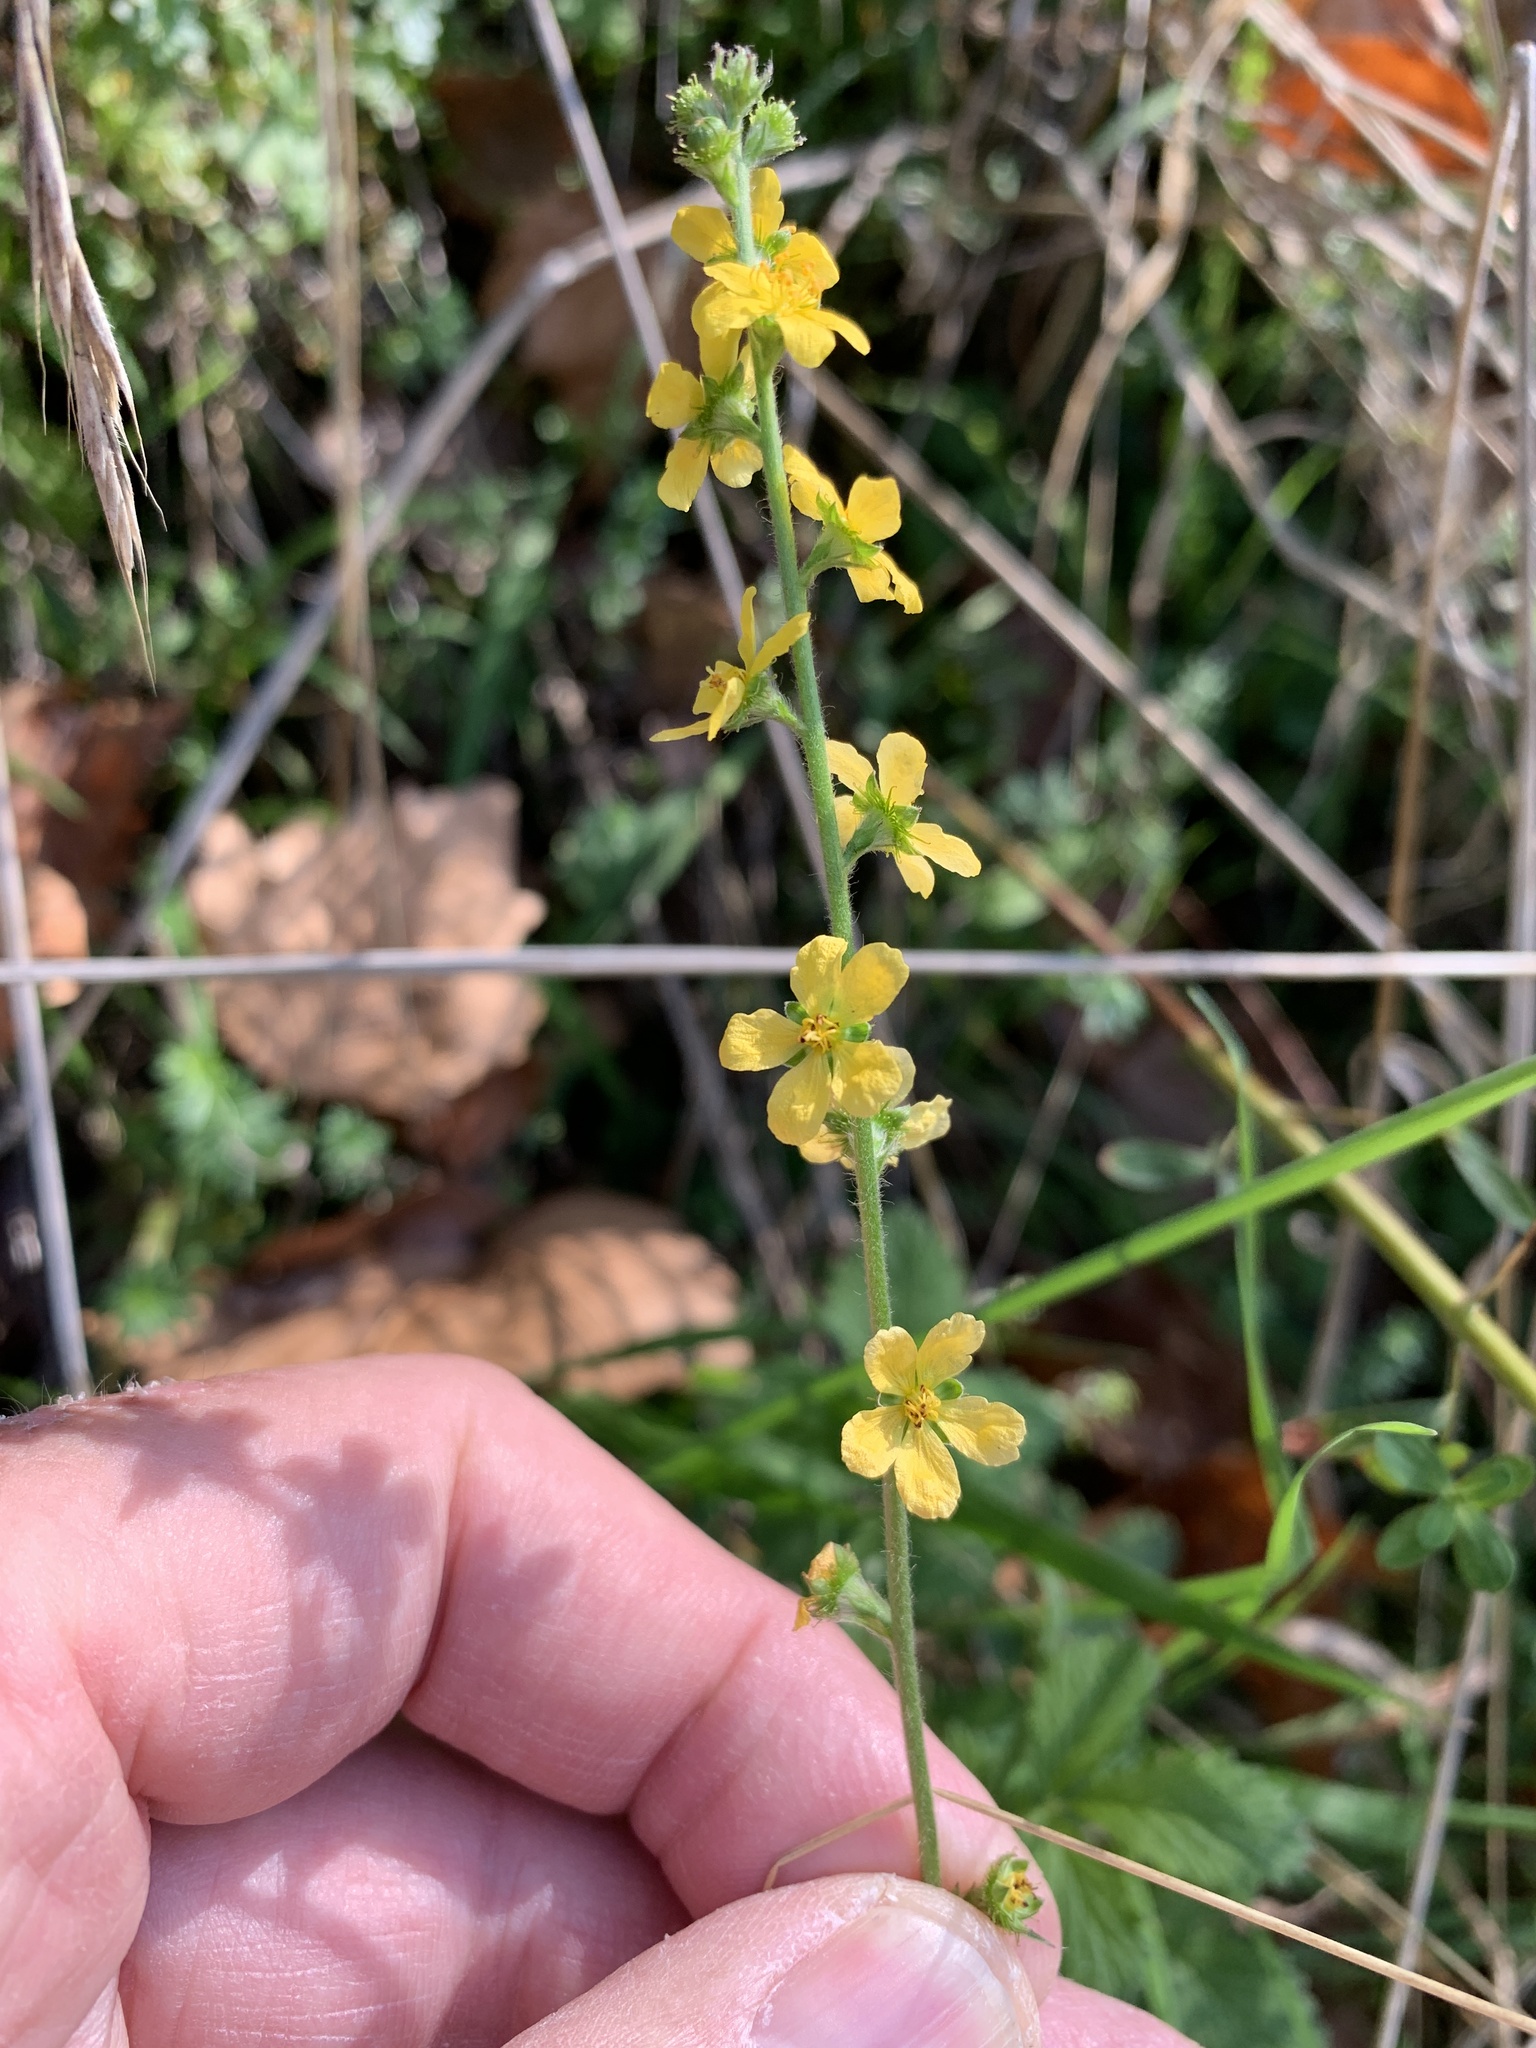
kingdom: Plantae
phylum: Tracheophyta
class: Magnoliopsida
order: Rosales
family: Rosaceae
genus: Agrimonia
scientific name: Agrimonia eupatoria
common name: Agrimony
